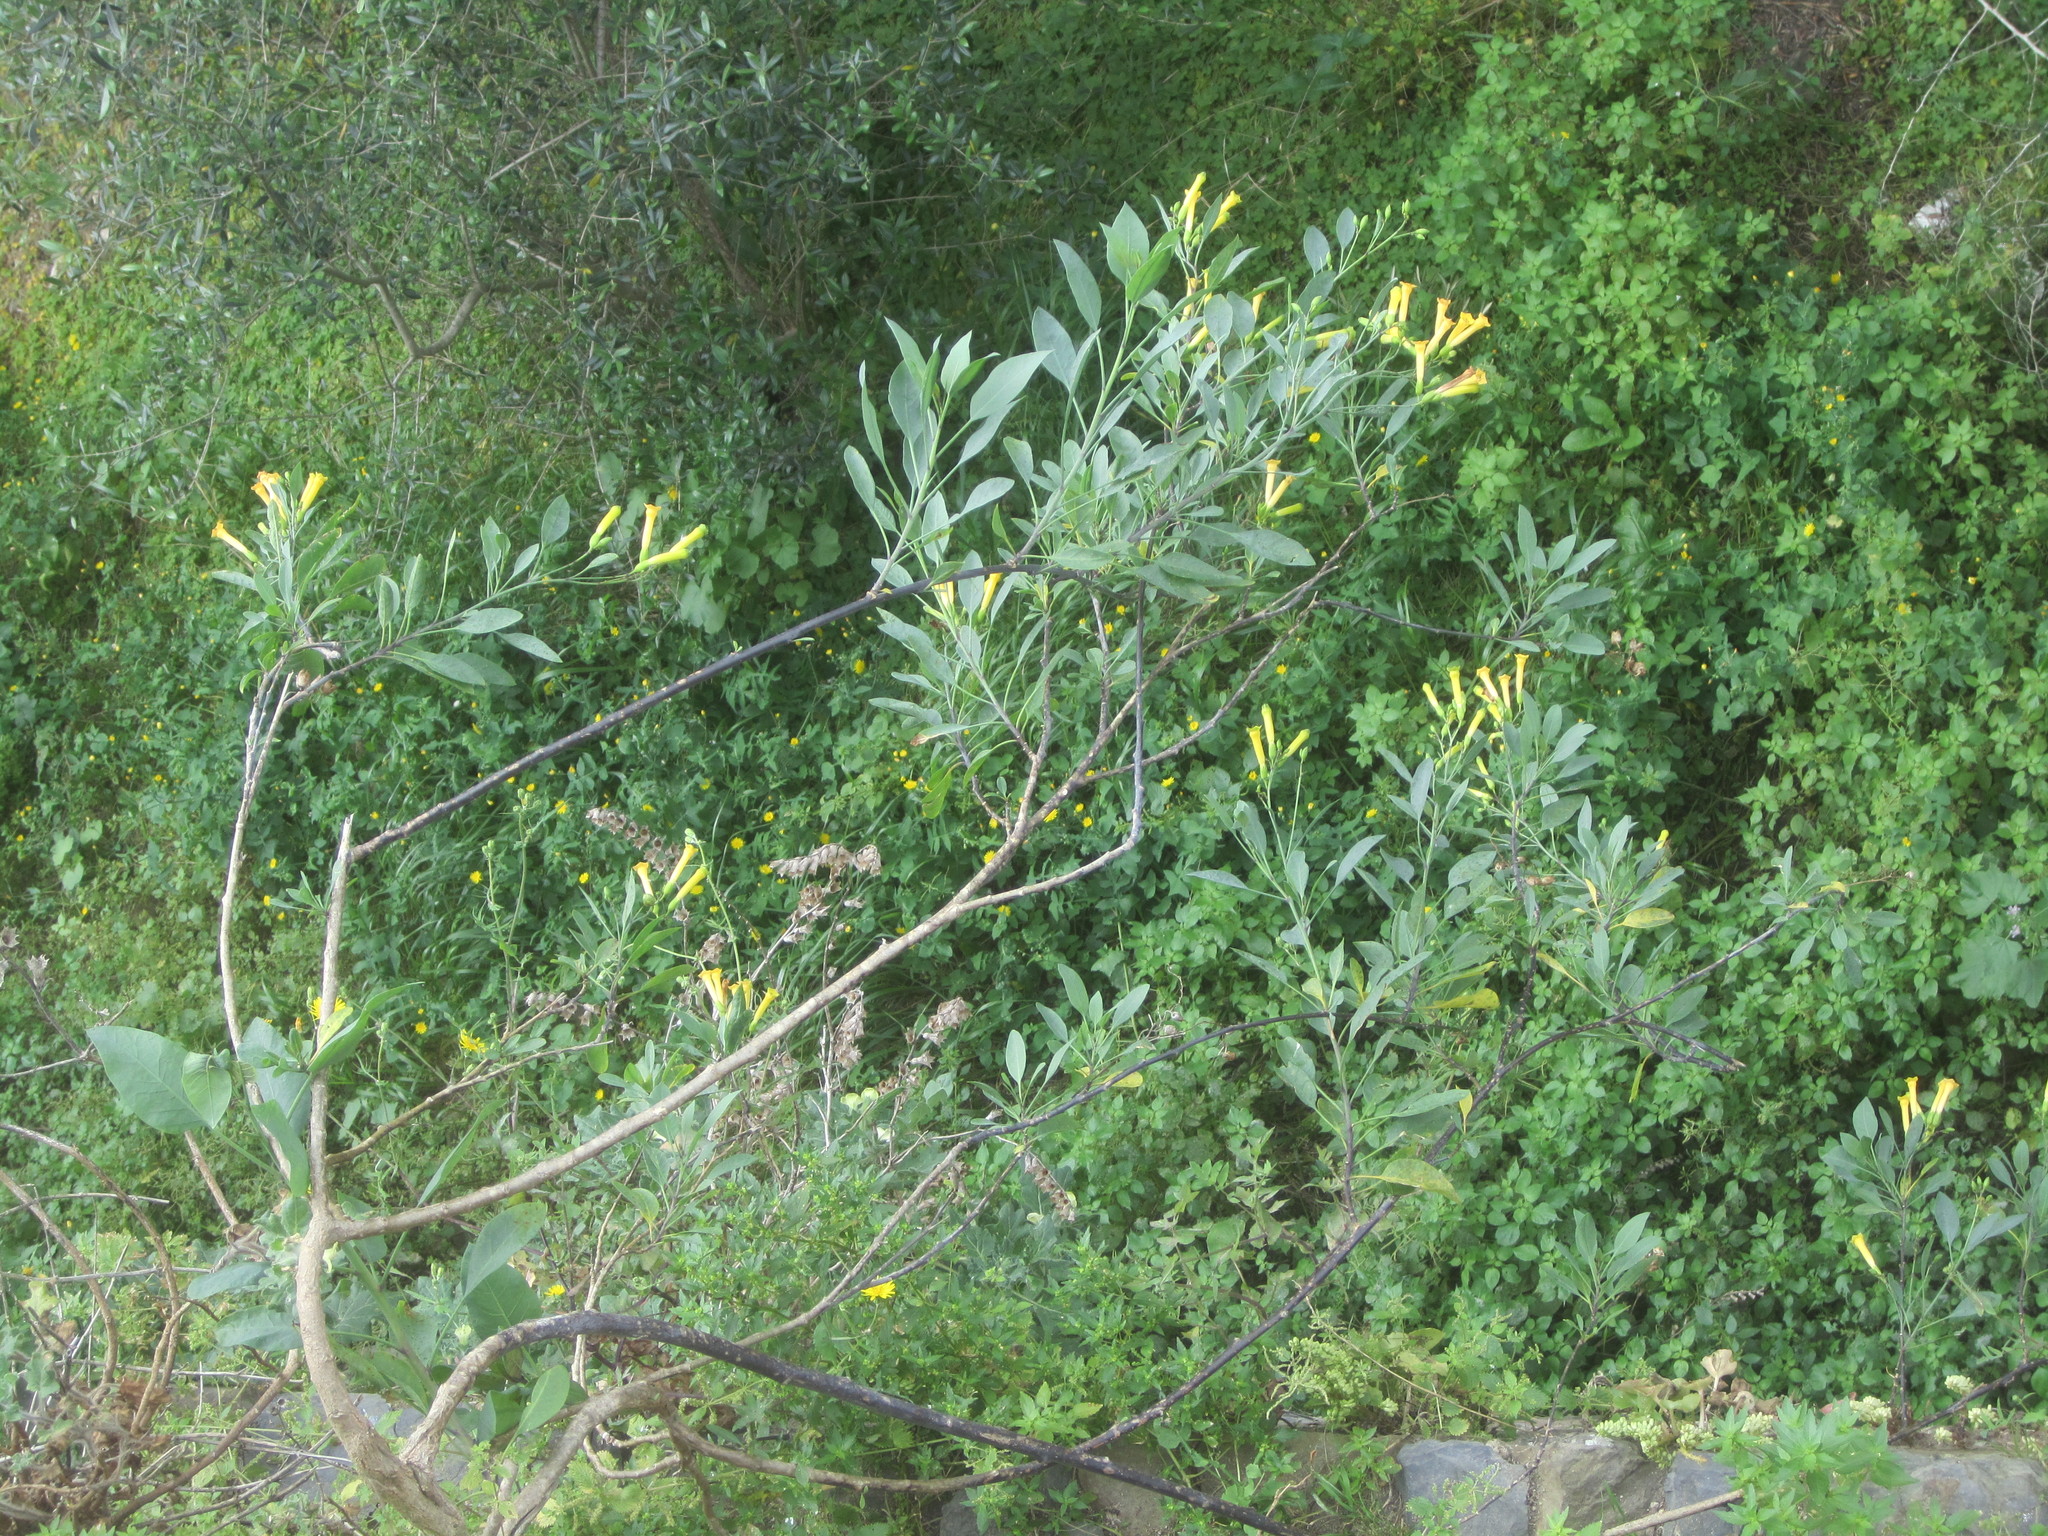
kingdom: Plantae
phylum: Tracheophyta
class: Magnoliopsida
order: Solanales
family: Solanaceae
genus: Nicotiana
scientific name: Nicotiana glauca
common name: Tree tobacco
